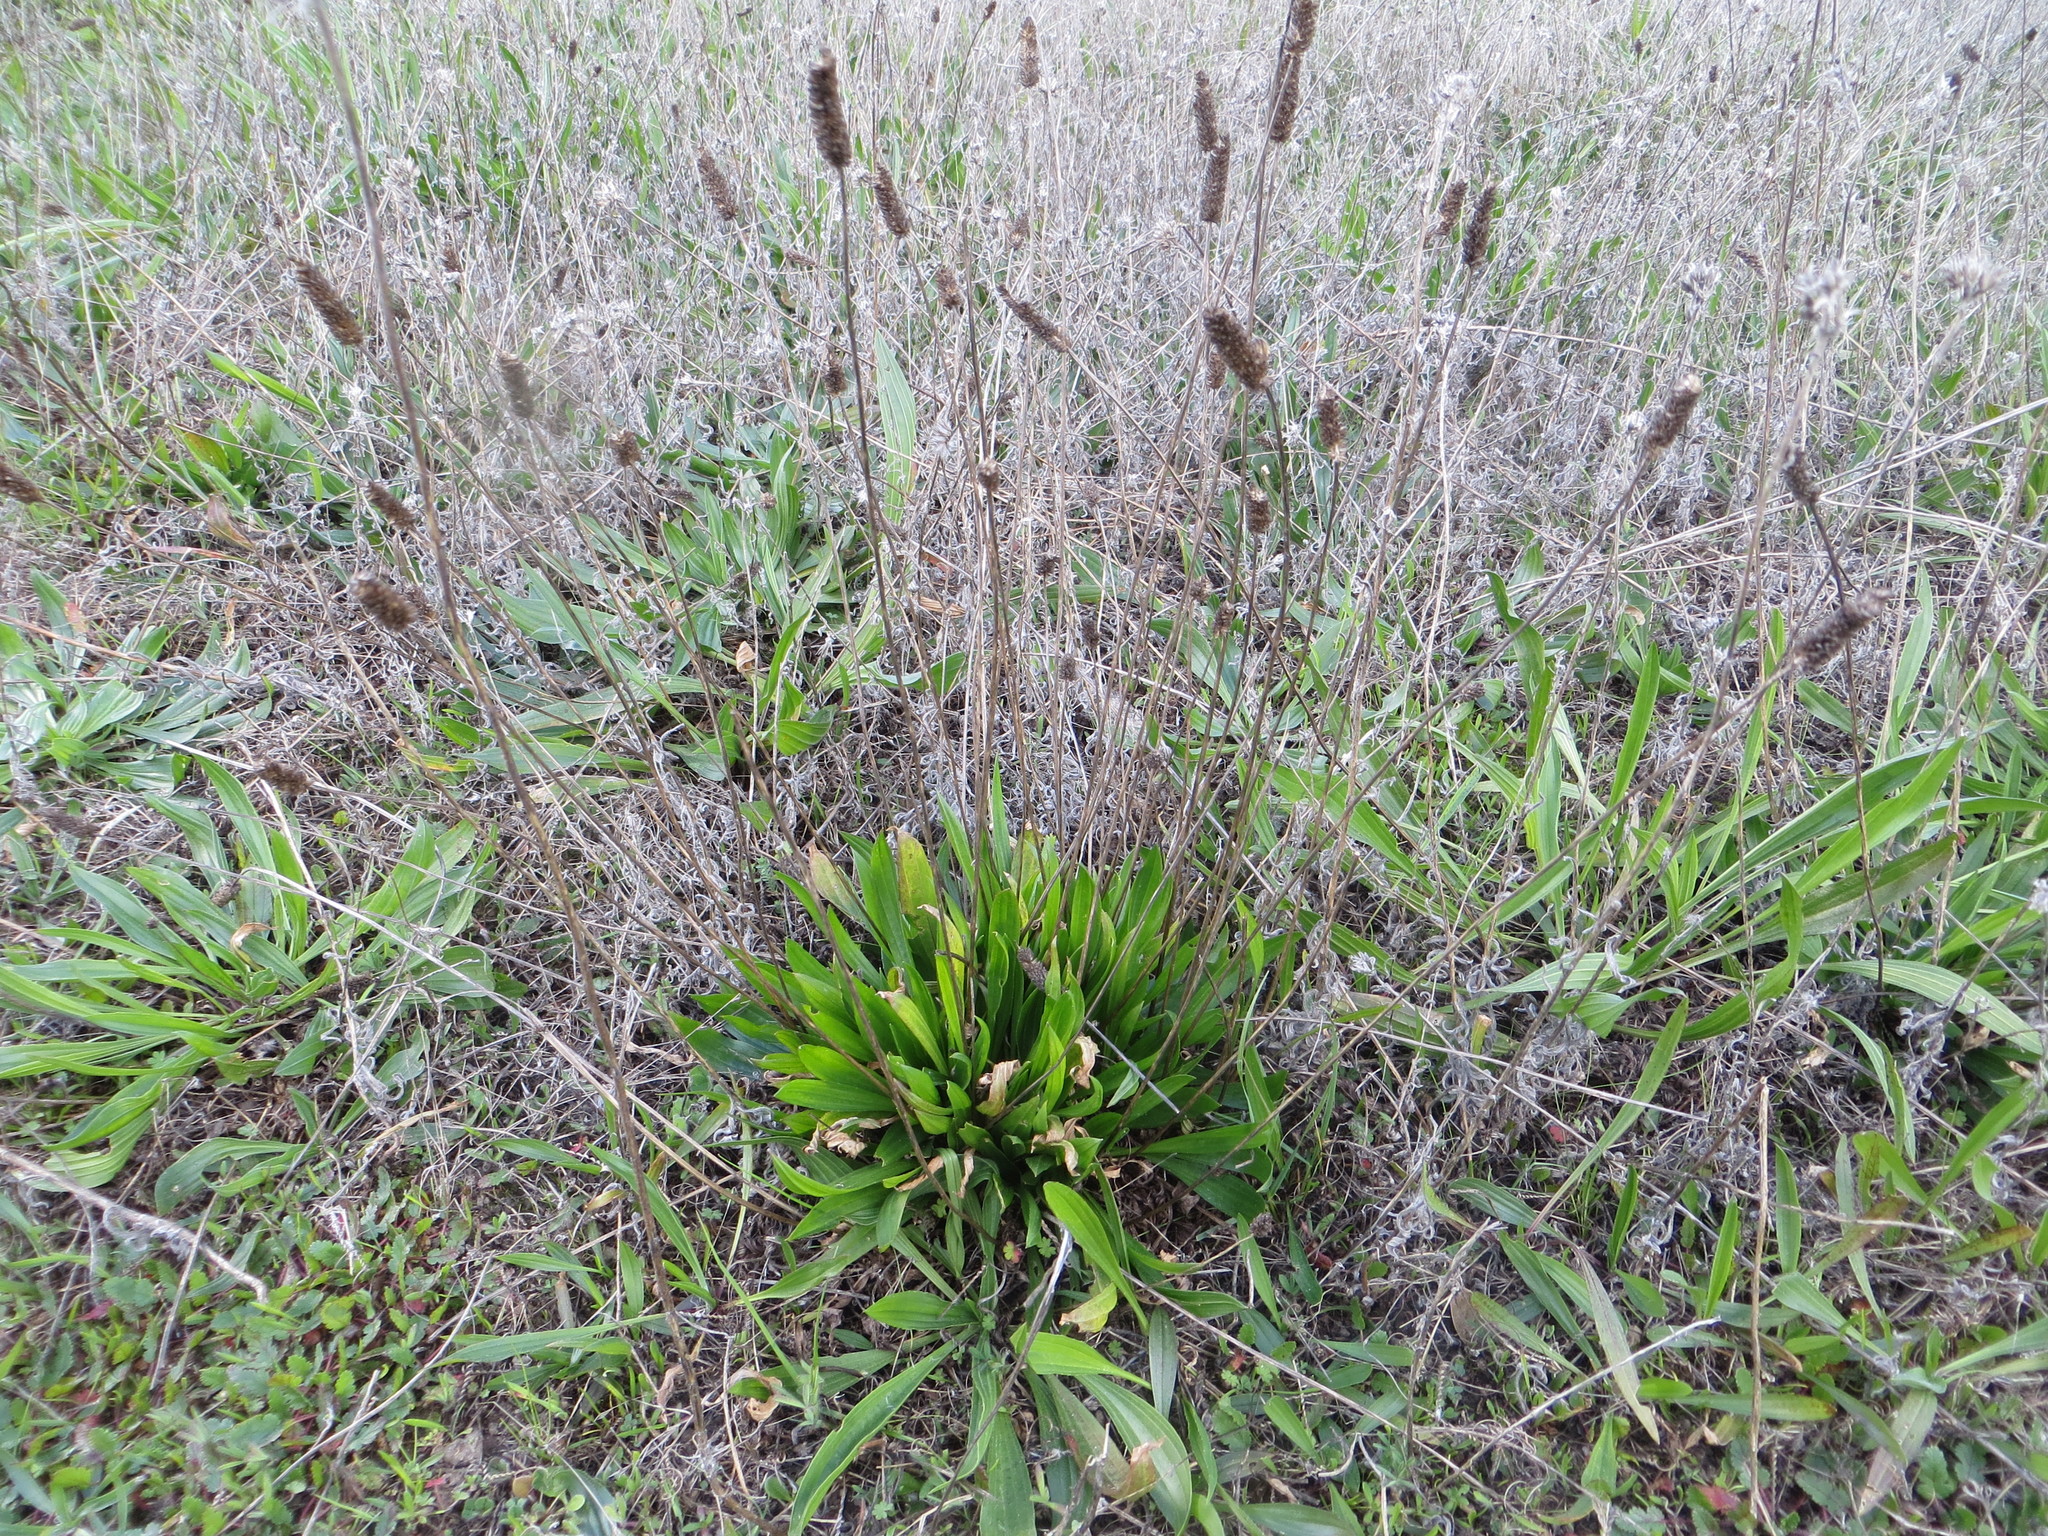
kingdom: Plantae
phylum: Tracheophyta
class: Magnoliopsida
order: Lamiales
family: Plantaginaceae
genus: Plantago
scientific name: Plantago lanceolata
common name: Ribwort plantain
